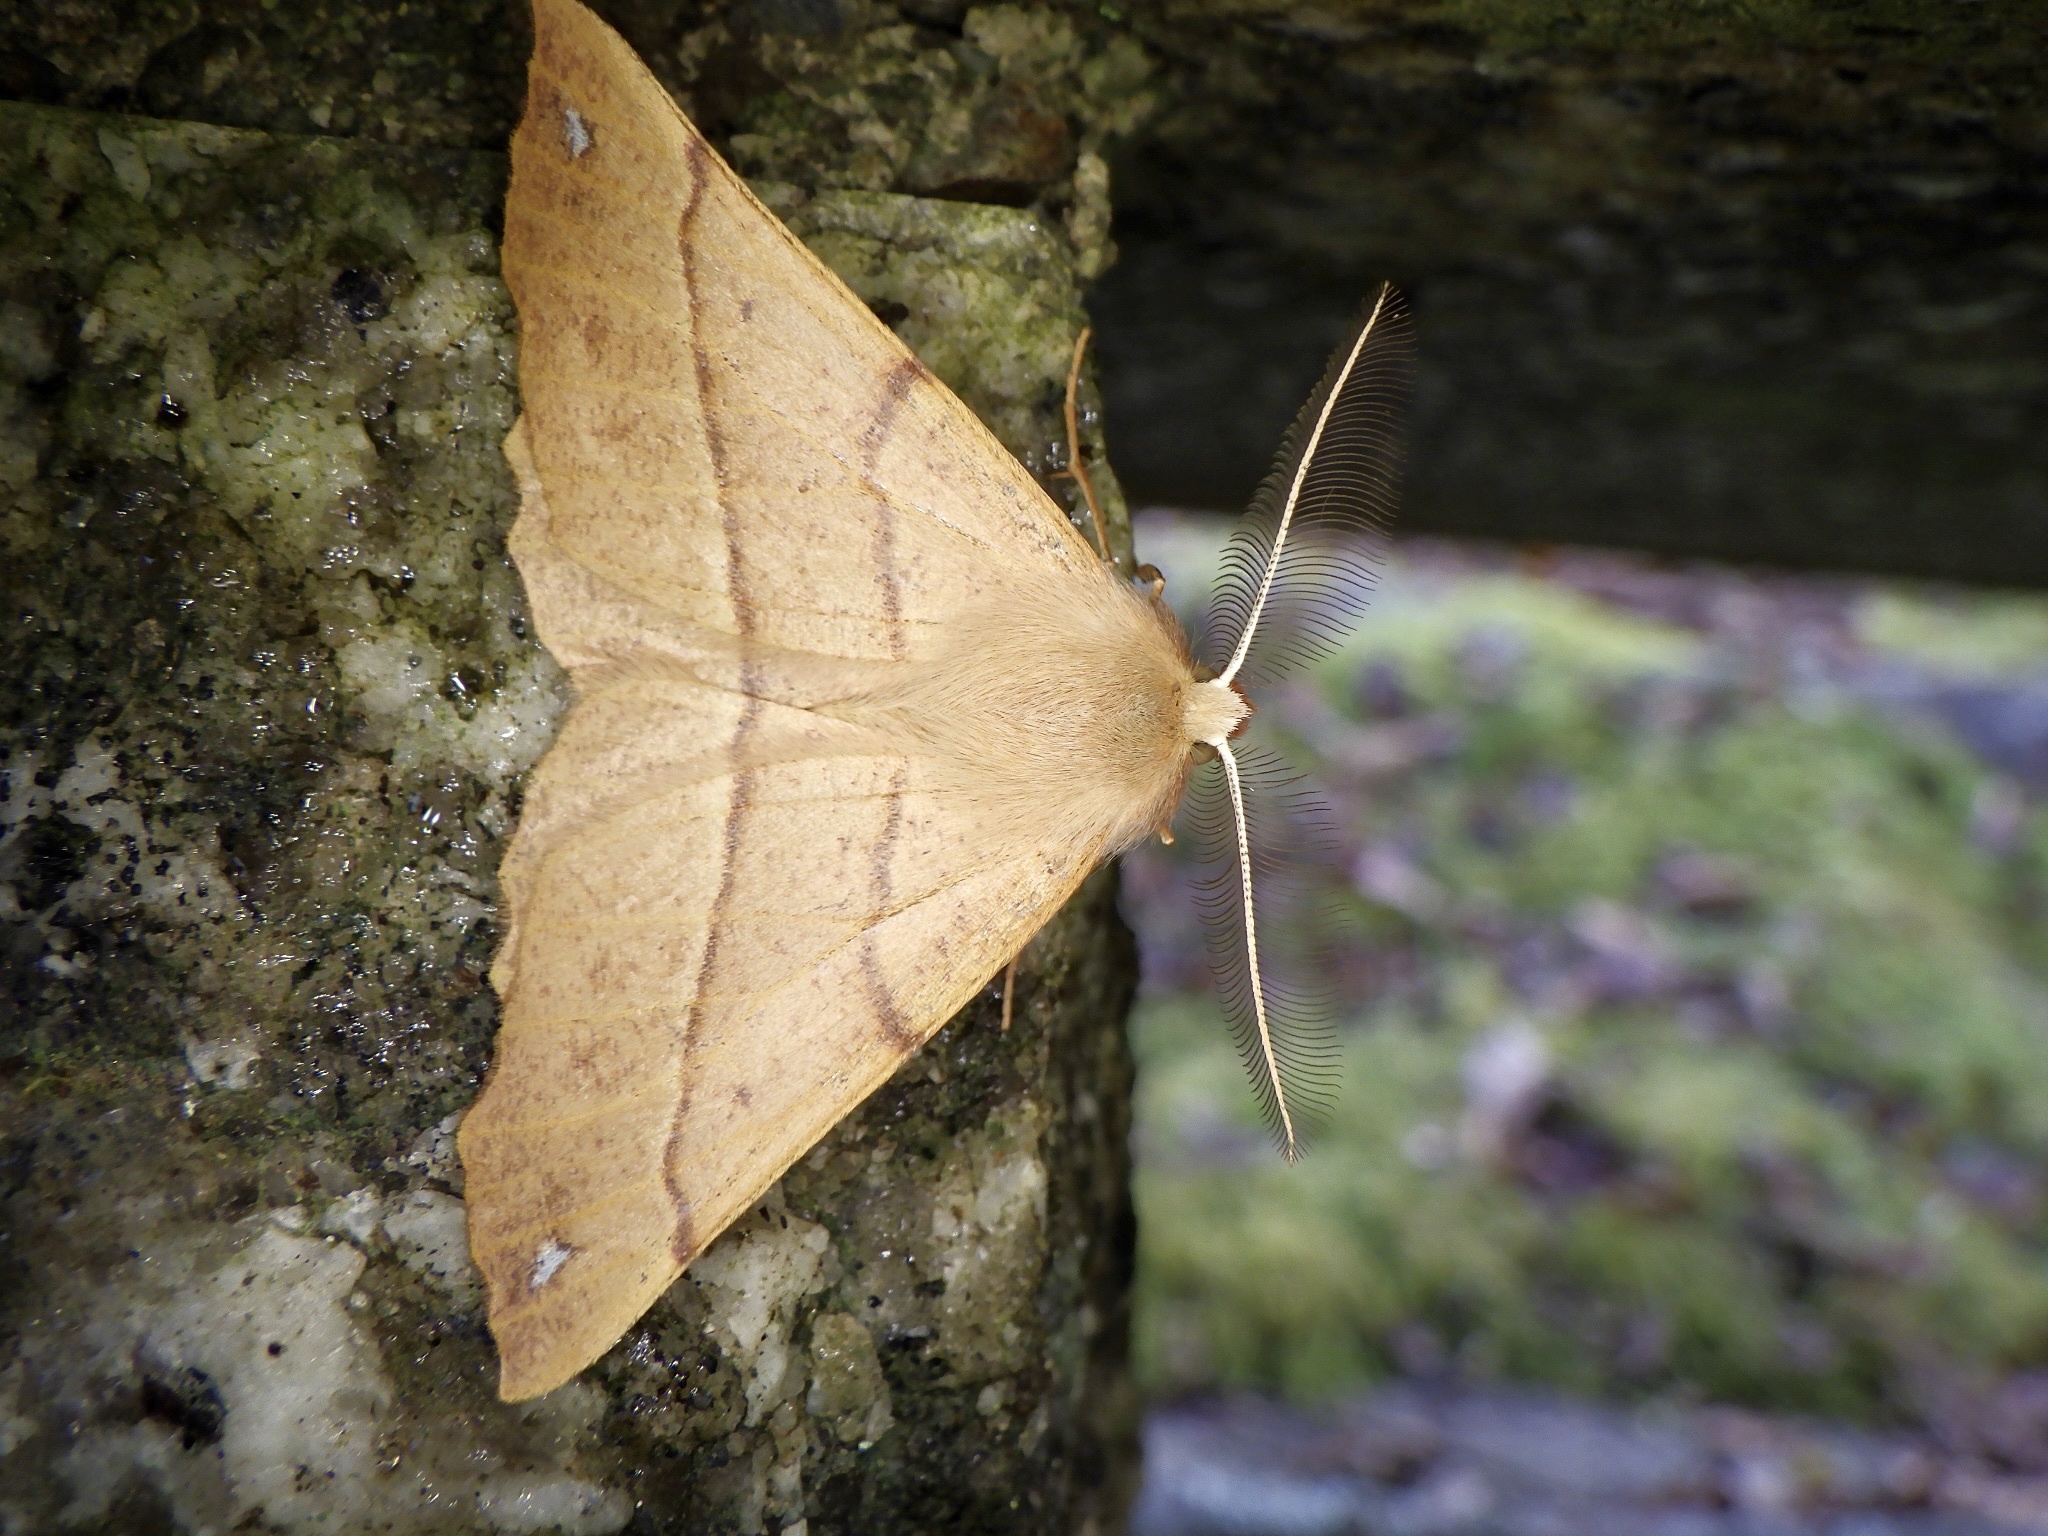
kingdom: Animalia
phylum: Arthropoda
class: Insecta
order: Lepidoptera
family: Geometridae
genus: Colotois
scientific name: Colotois pennaria
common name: Feathered thorn
